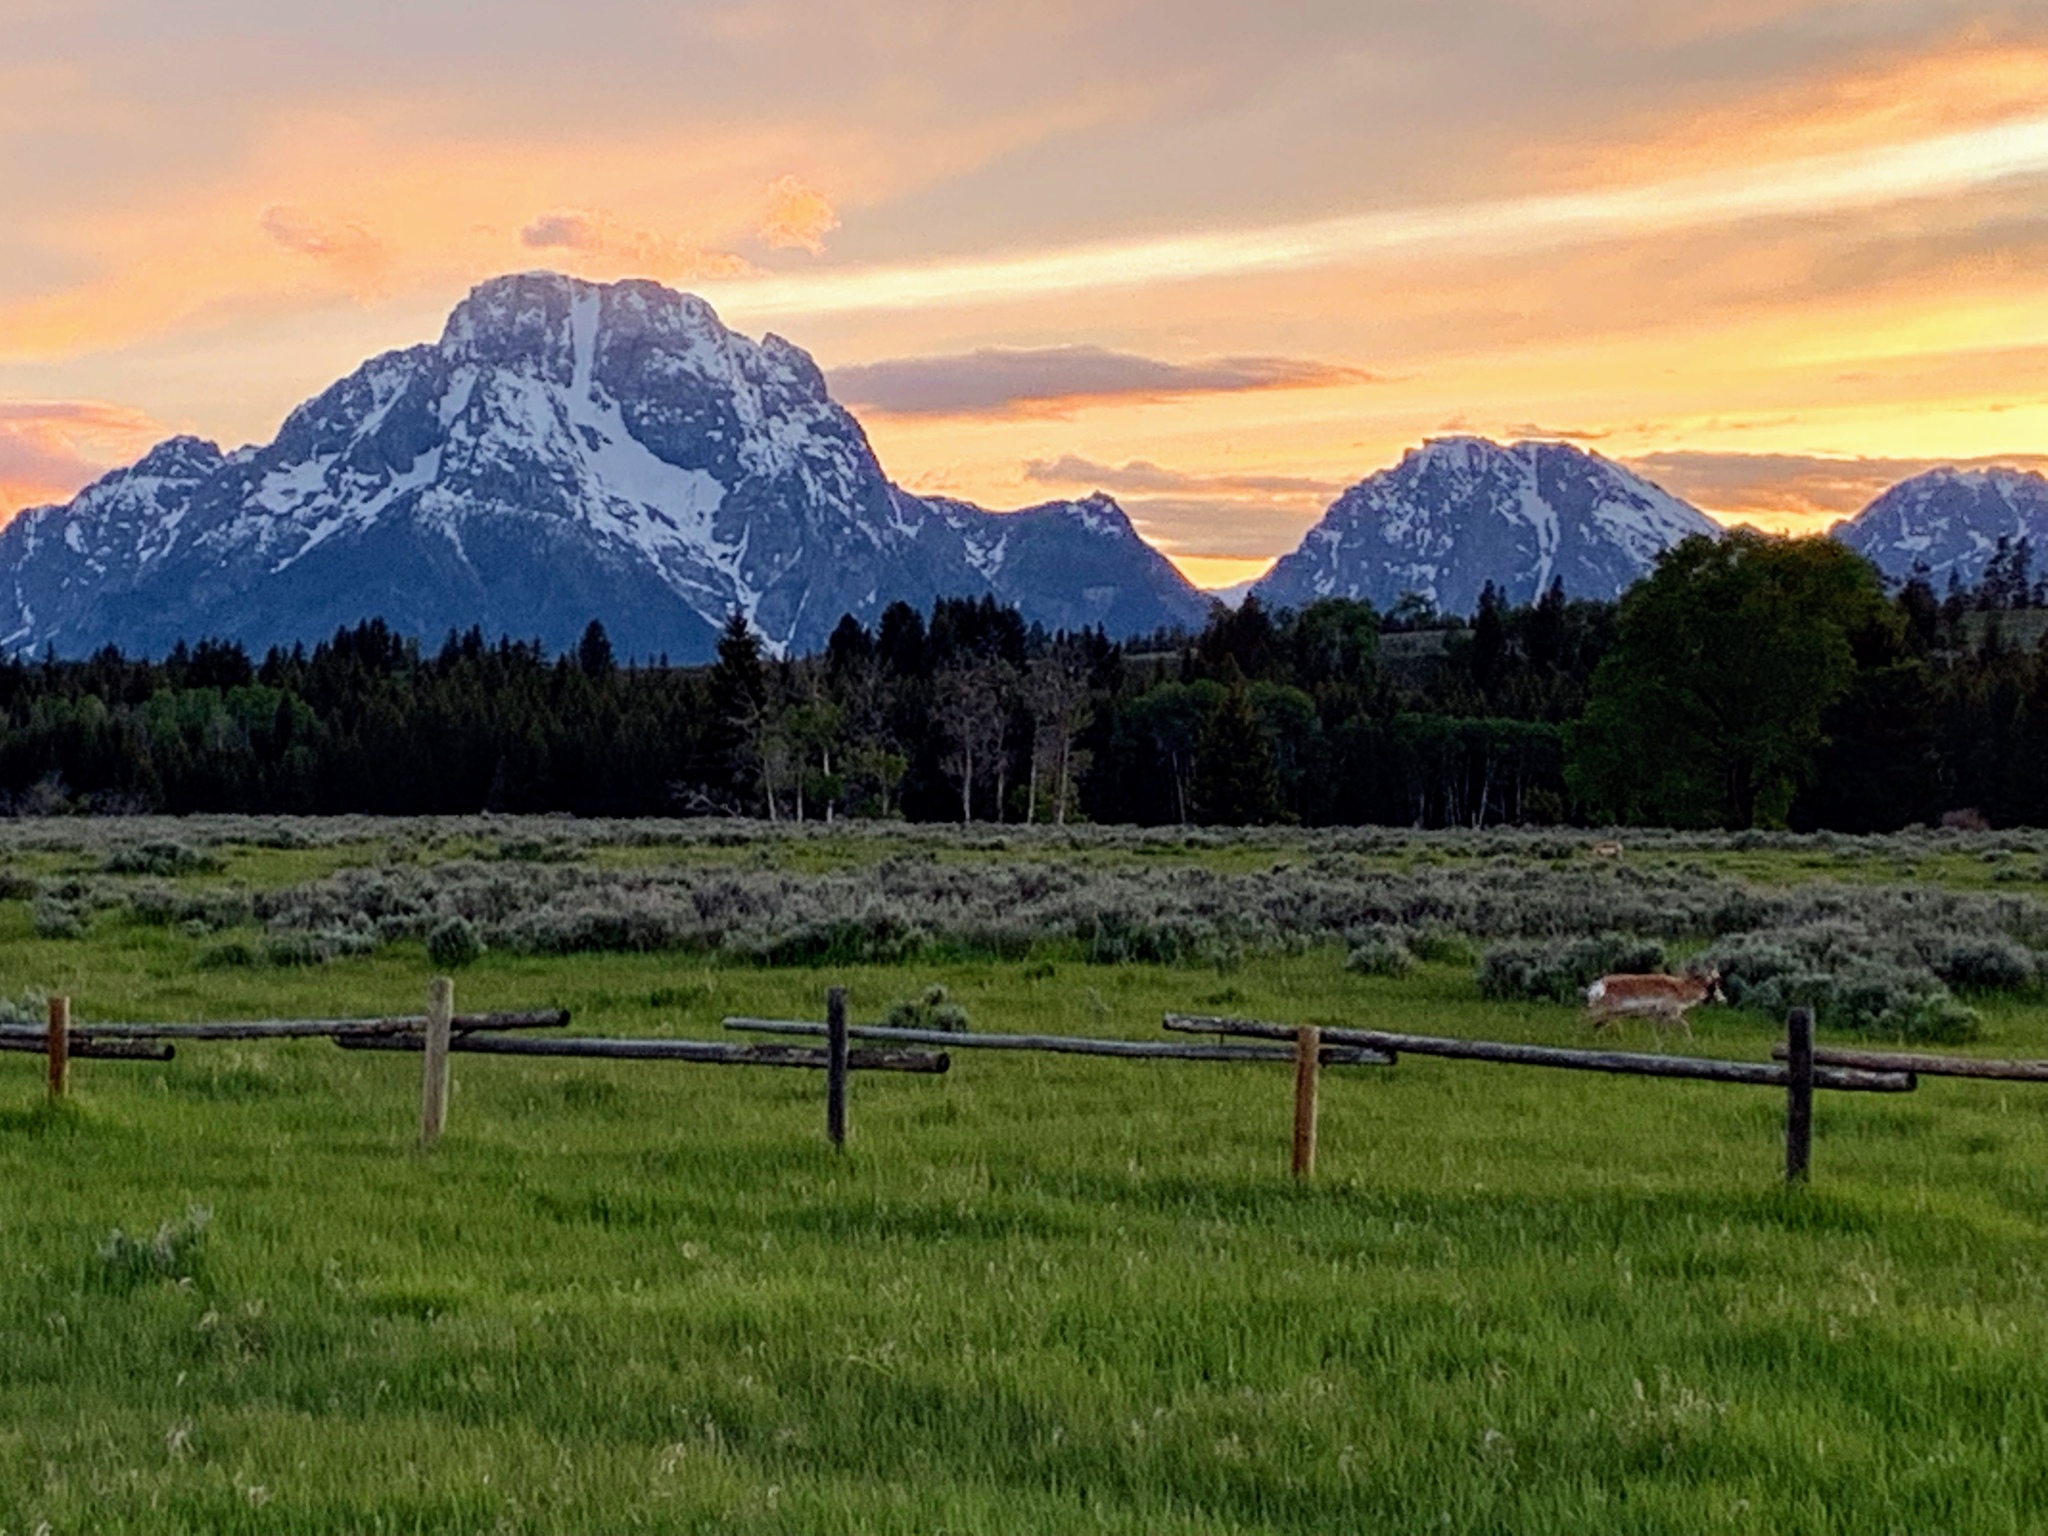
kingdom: Animalia
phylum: Chordata
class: Mammalia
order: Artiodactyla
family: Antilocapridae
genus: Antilocapra
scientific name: Antilocapra americana
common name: Pronghorn
